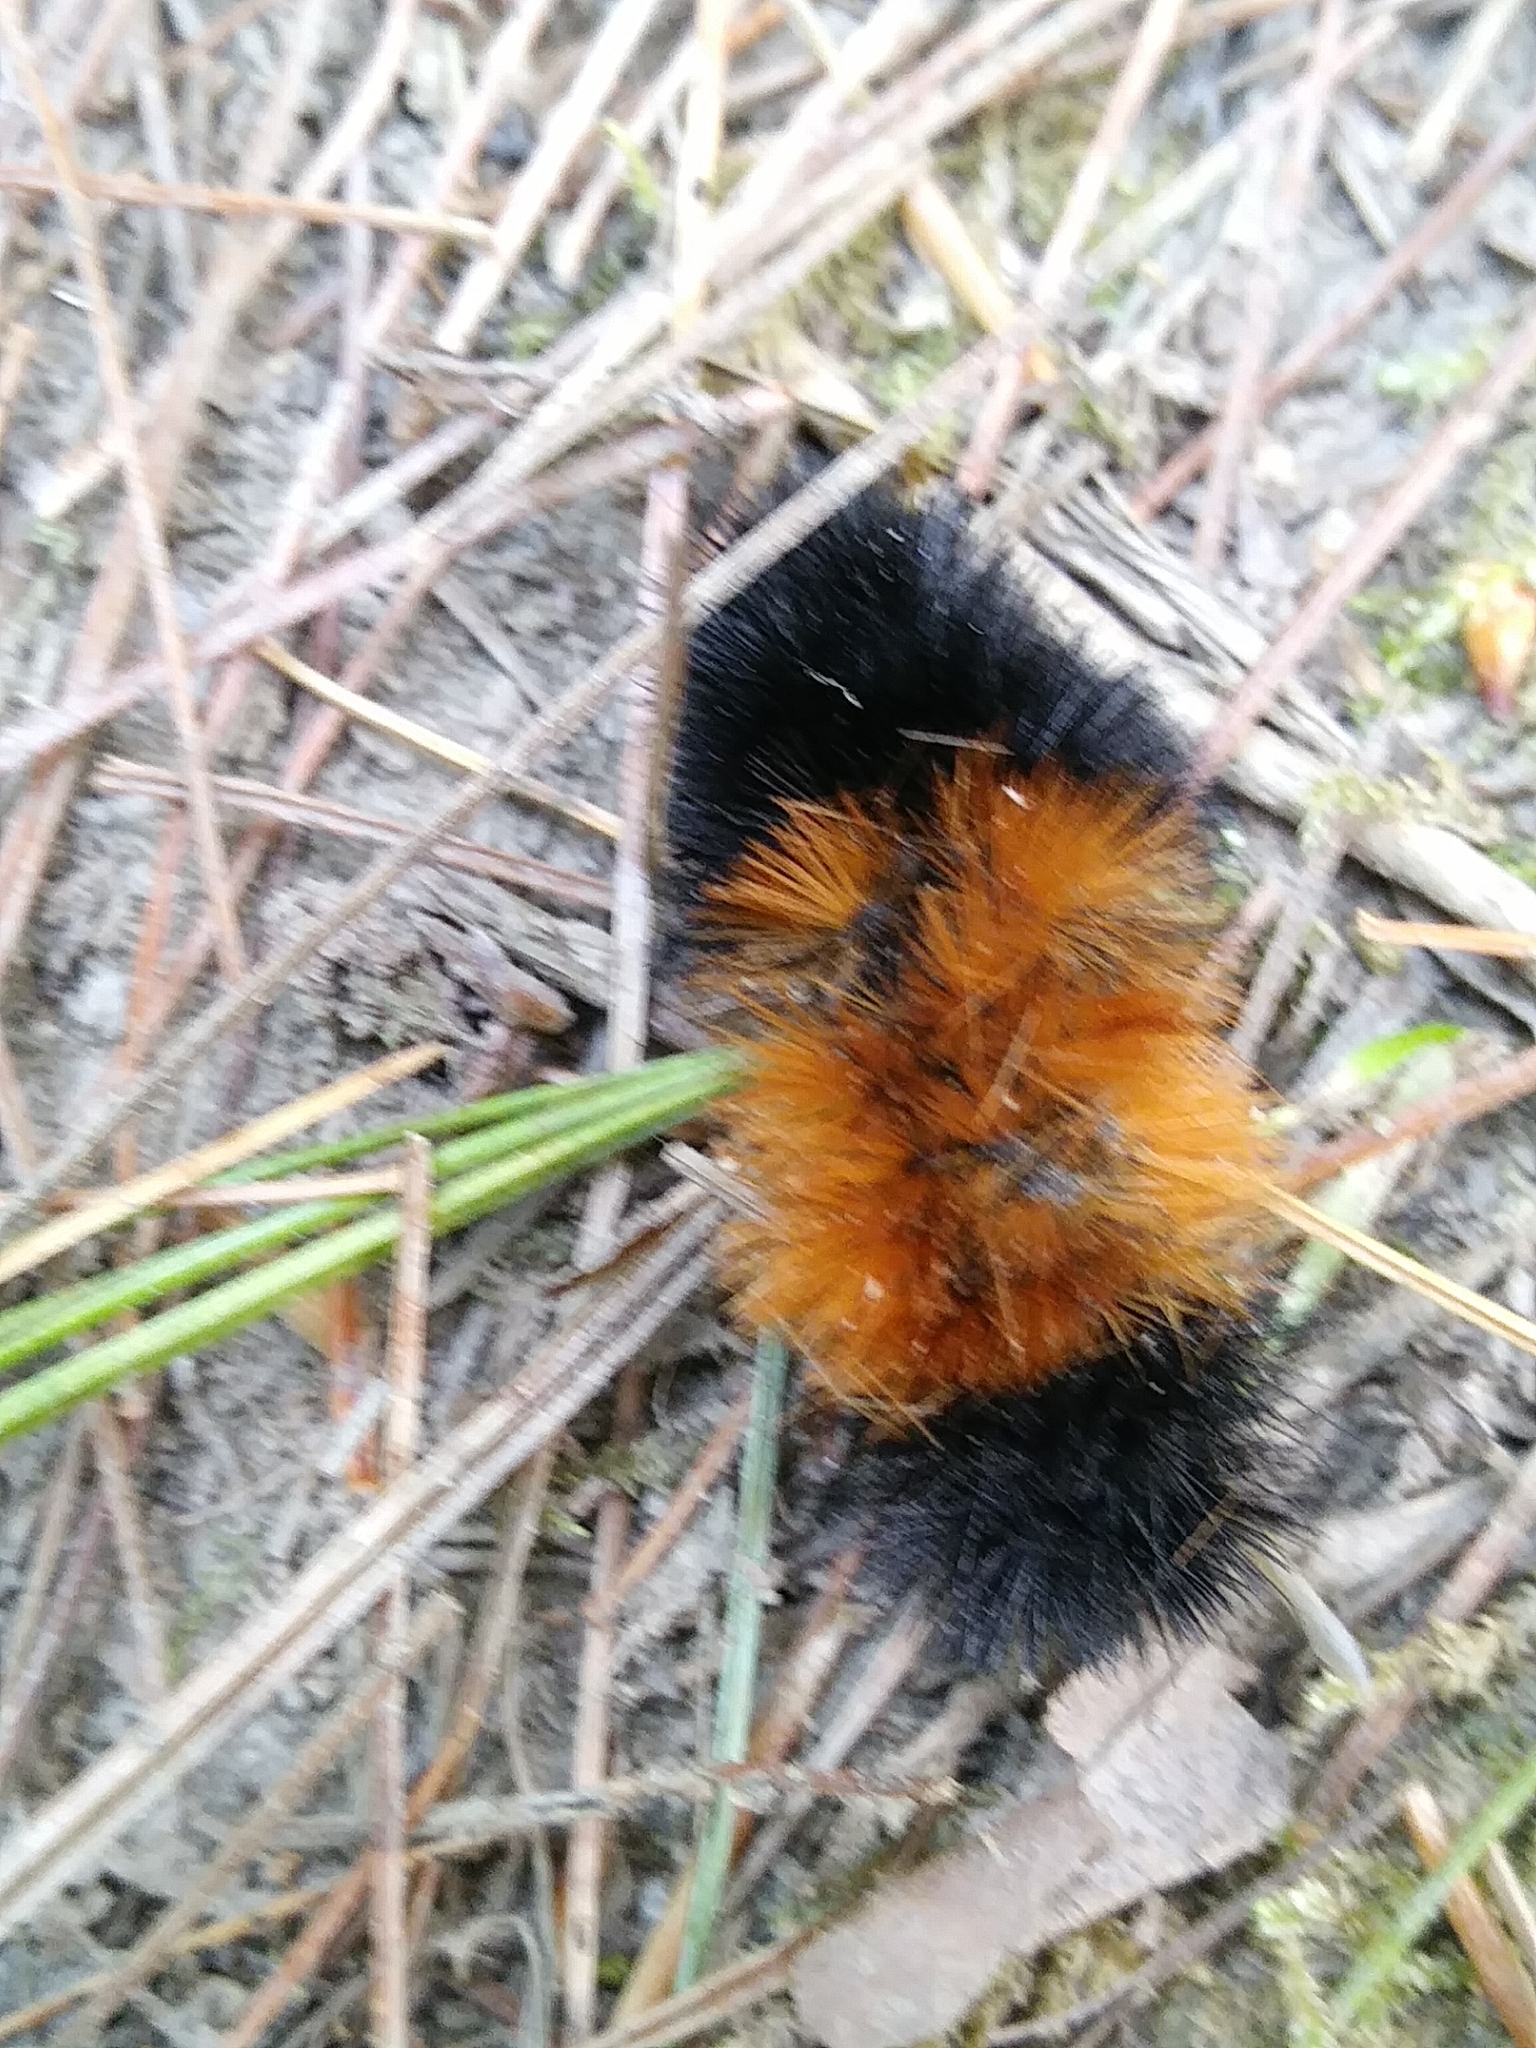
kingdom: Animalia
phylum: Arthropoda
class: Insecta
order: Lepidoptera
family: Erebidae
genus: Pyrrharctia
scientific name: Pyrrharctia isabella
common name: Isabella tiger moth
